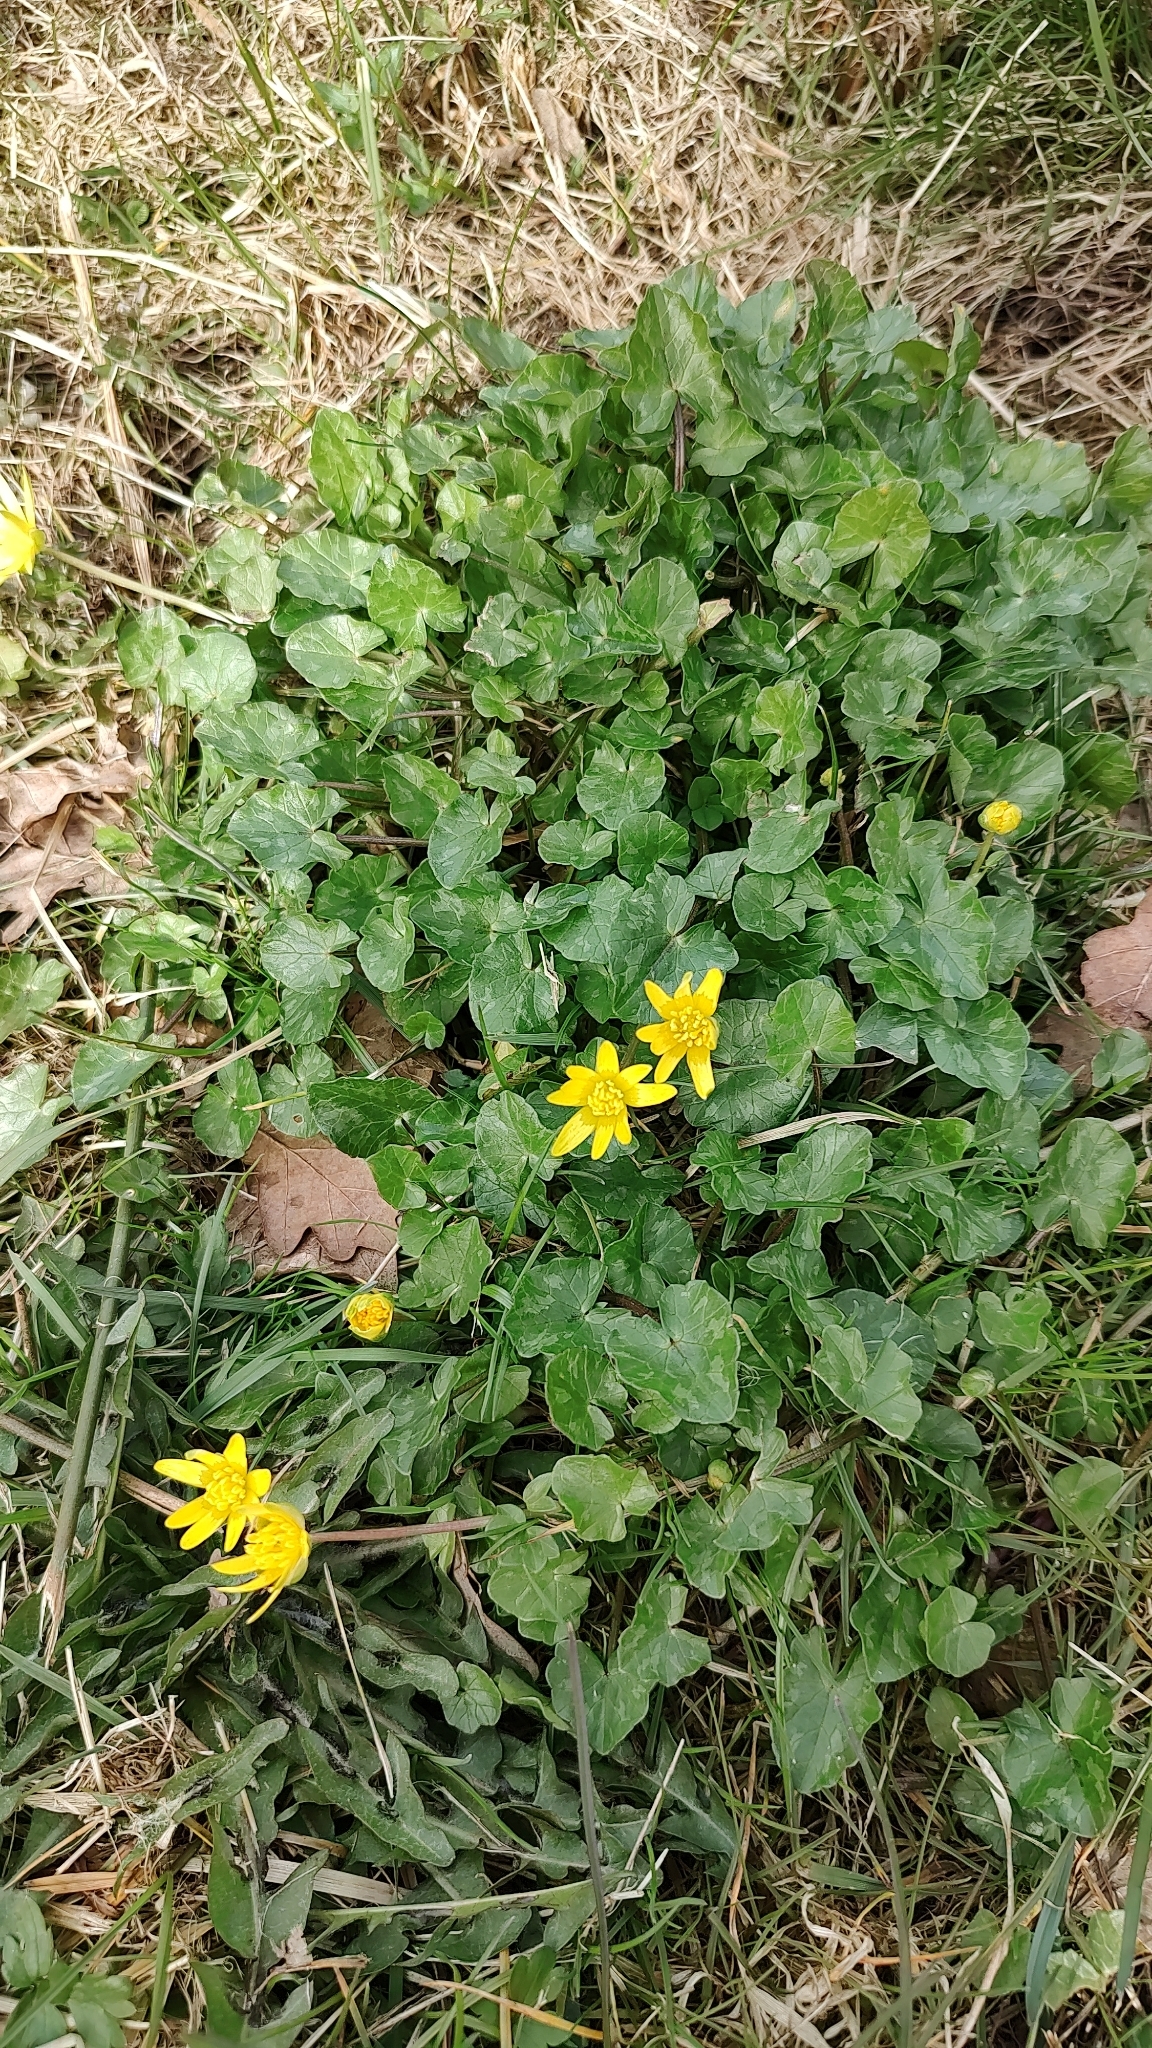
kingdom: Plantae
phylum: Tracheophyta
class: Magnoliopsida
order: Ranunculales
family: Ranunculaceae
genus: Ficaria
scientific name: Ficaria verna
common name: Lesser celandine
